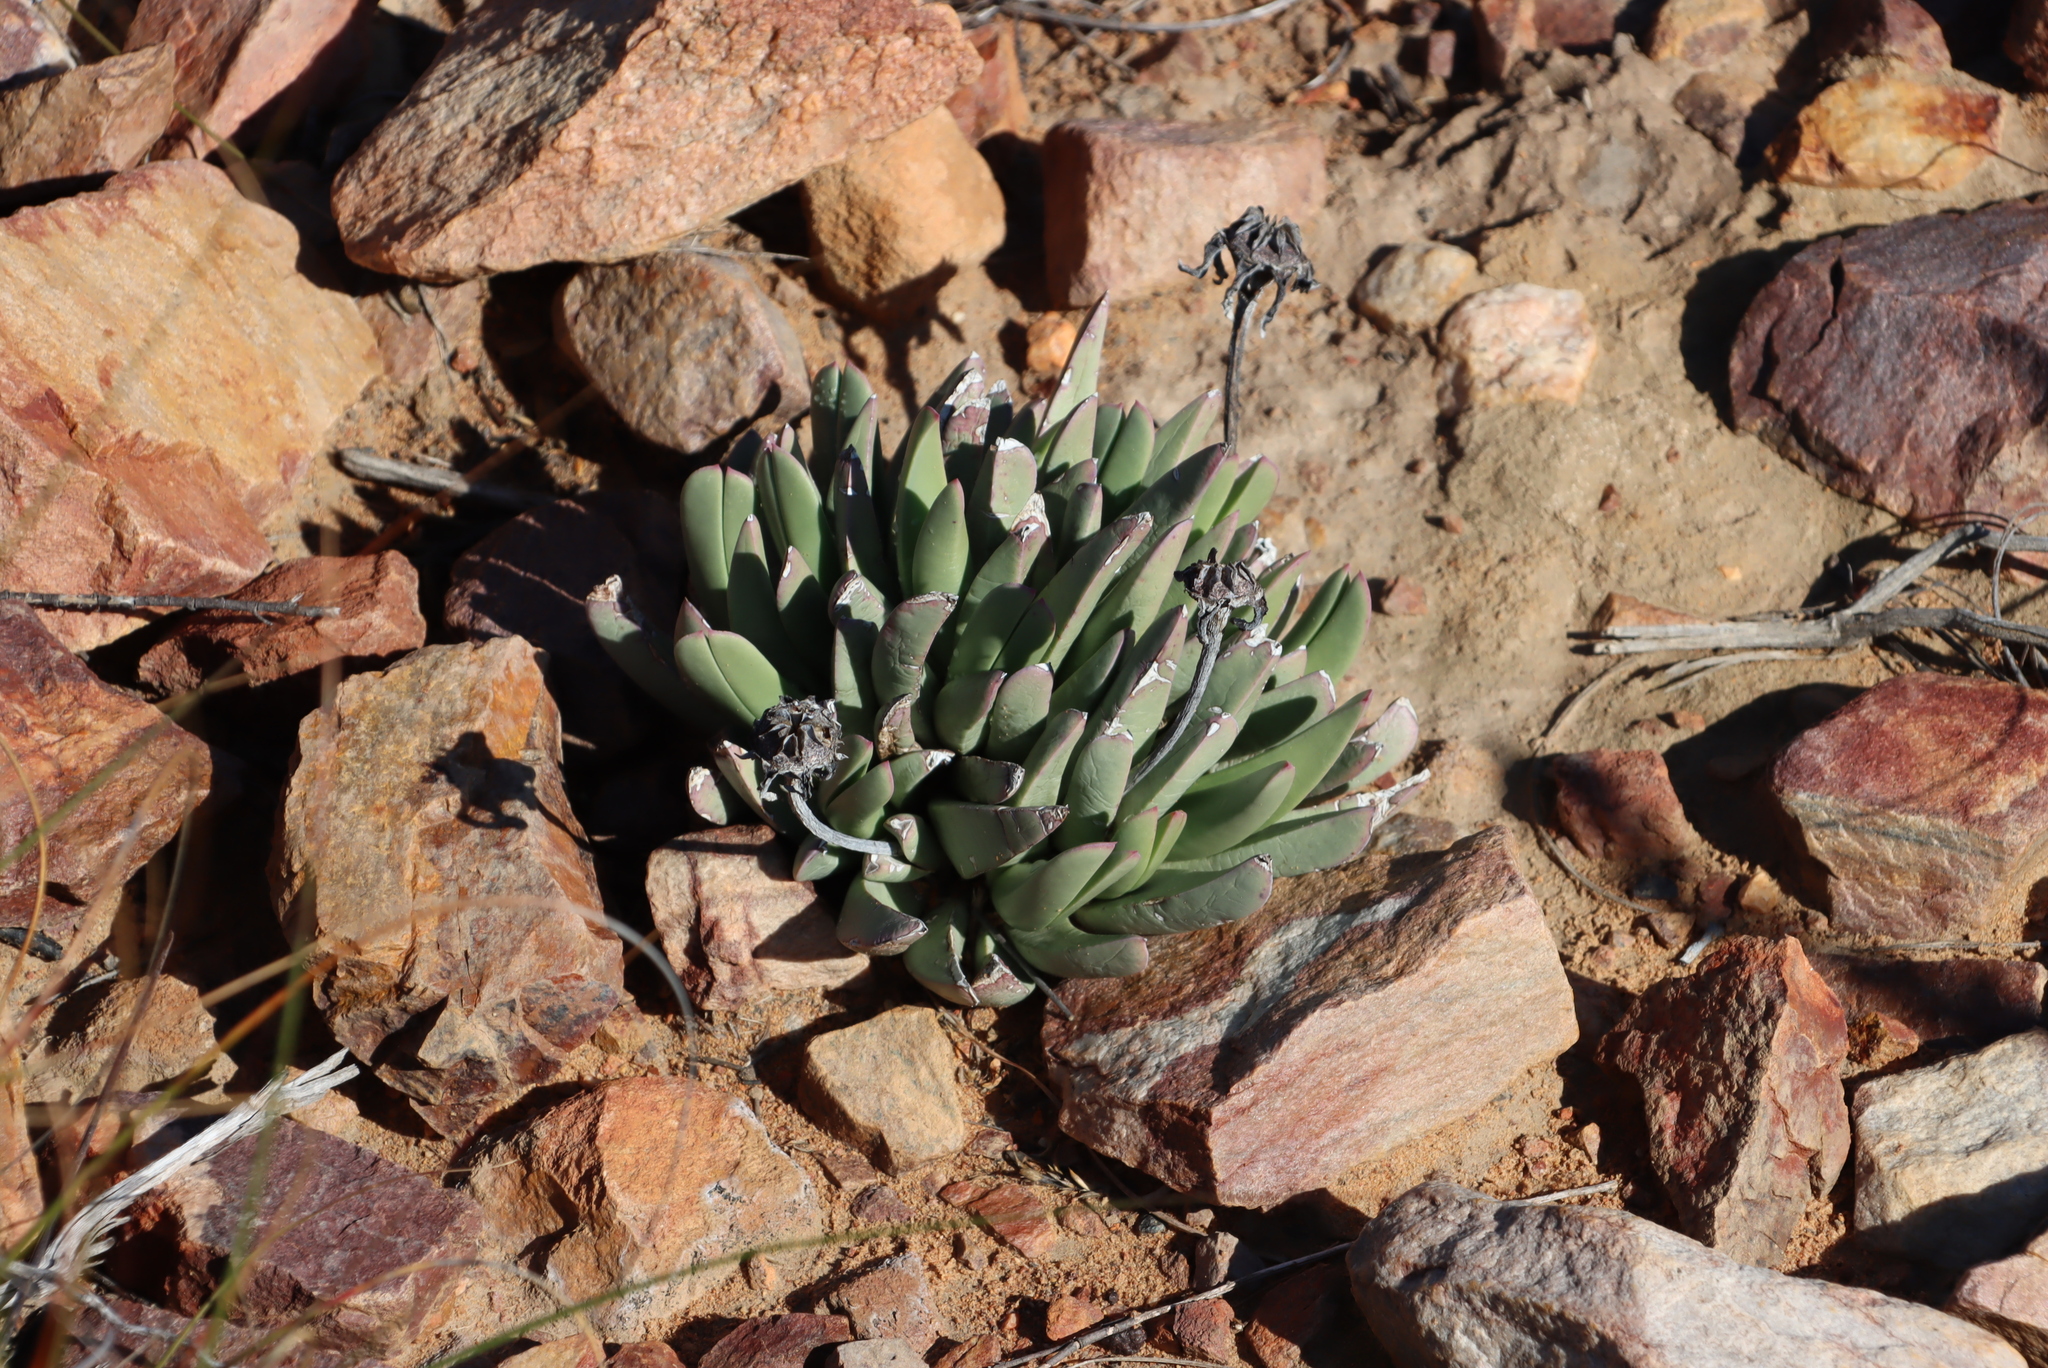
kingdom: Plantae
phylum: Tracheophyta
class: Magnoliopsida
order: Caryophyllales
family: Aizoaceae
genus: Machairophyllum
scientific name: Machairophyllum bijlii
